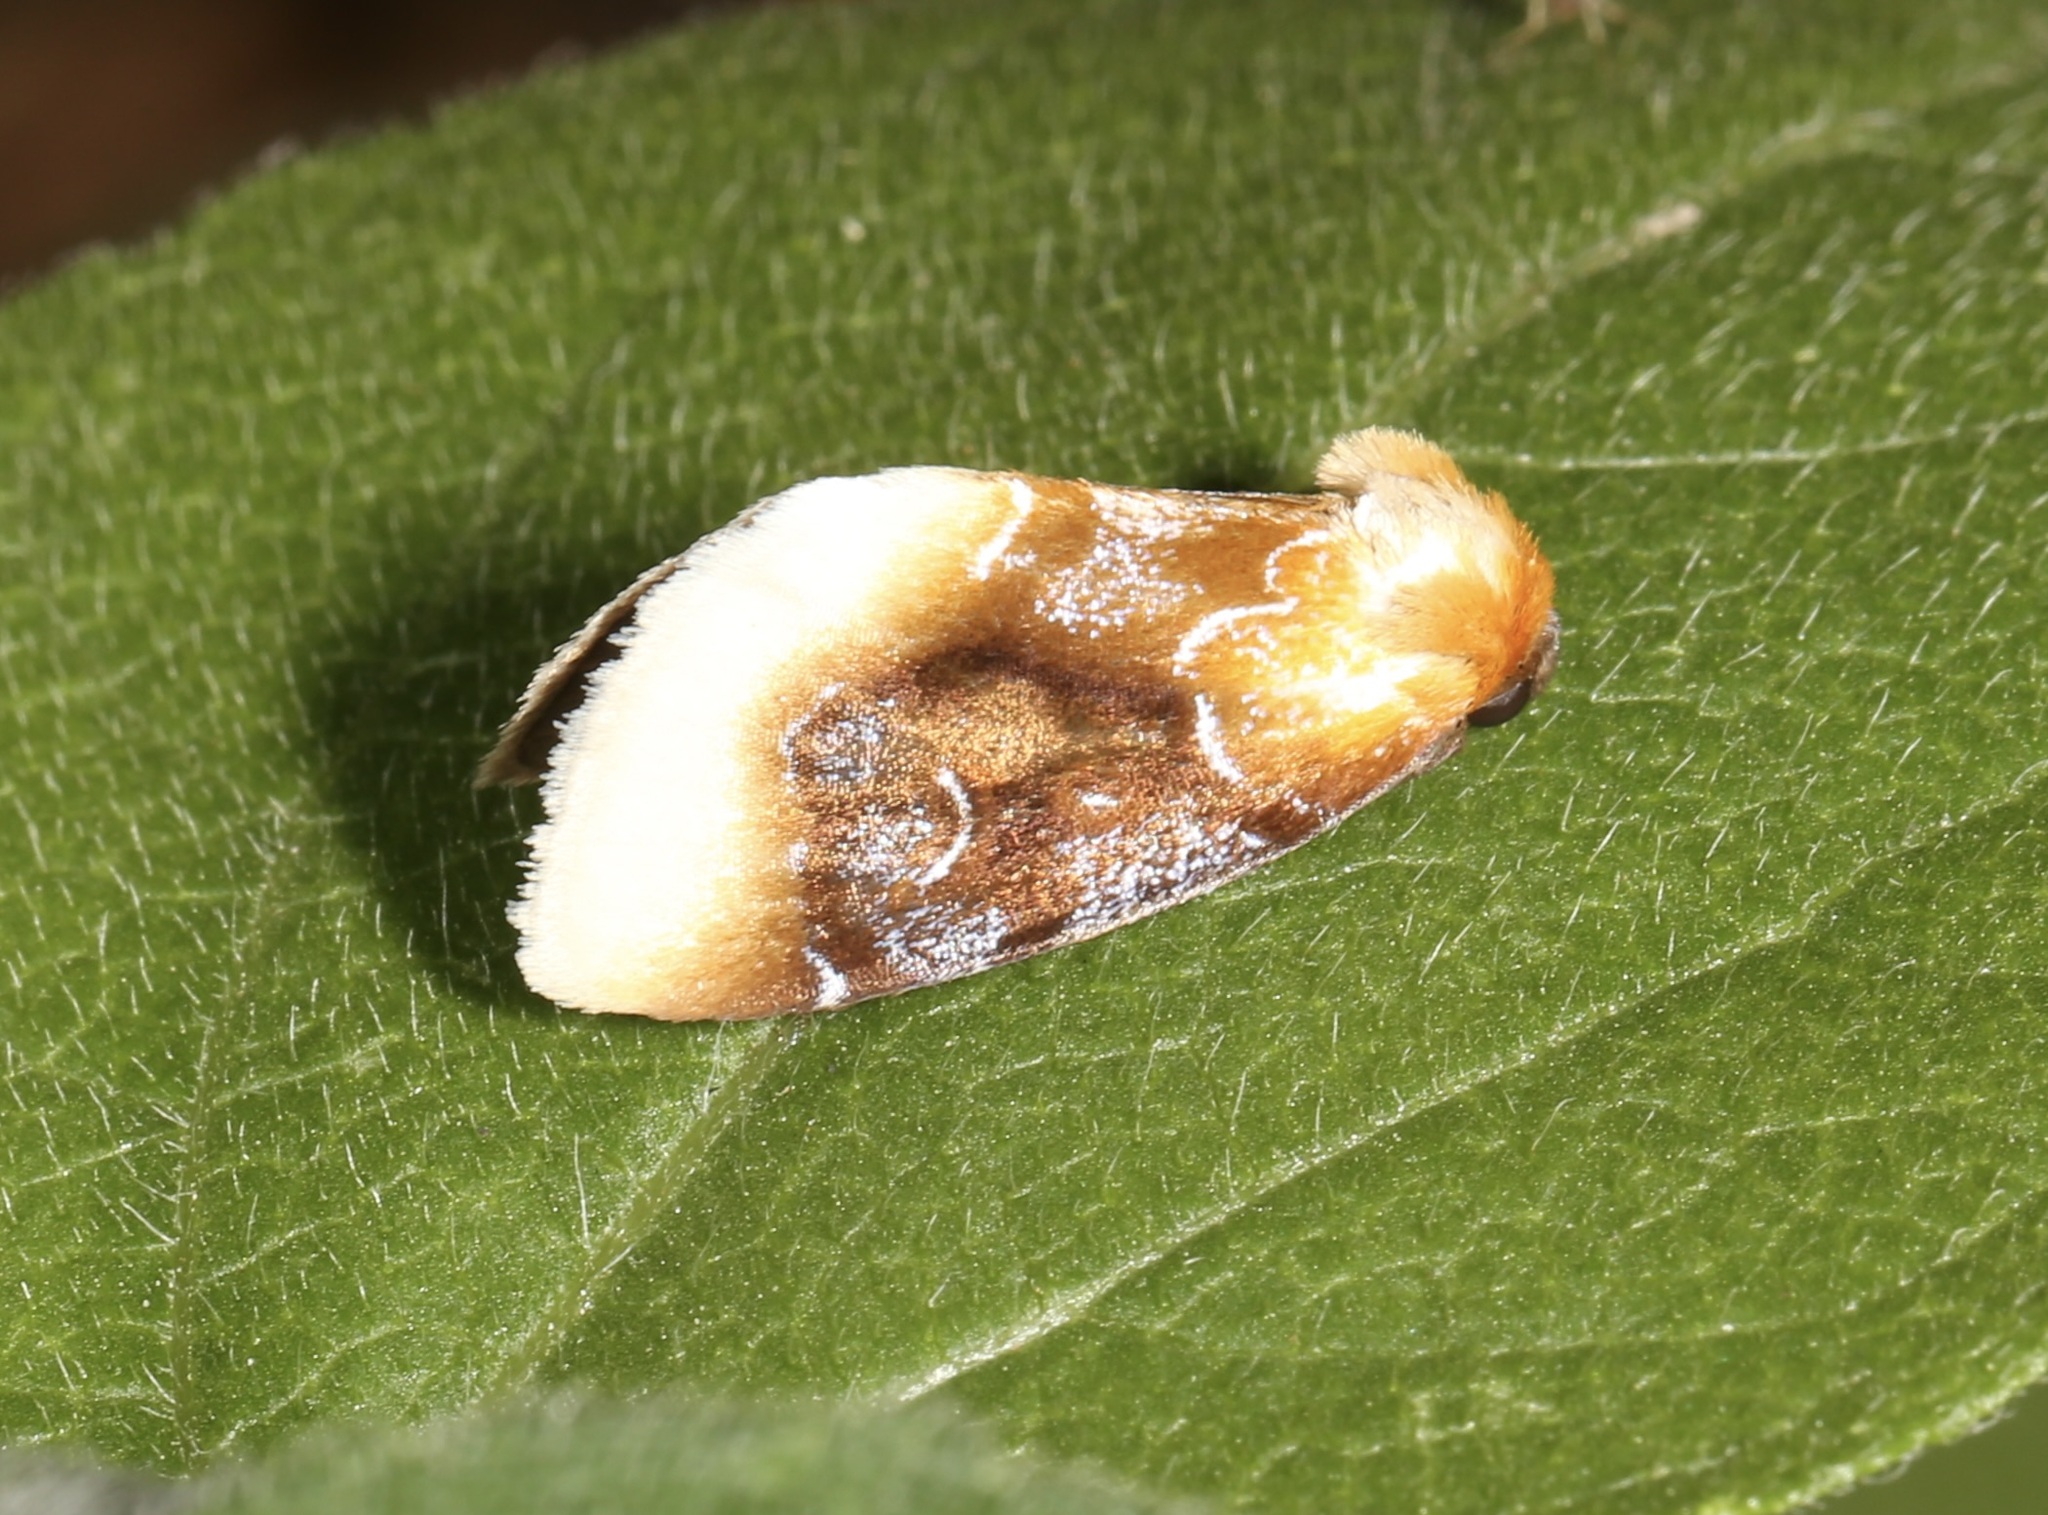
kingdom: Animalia
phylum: Arthropoda
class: Insecta
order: Lepidoptera
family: Noctuidae
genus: Chrysoecia
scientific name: Chrysoecia scira
